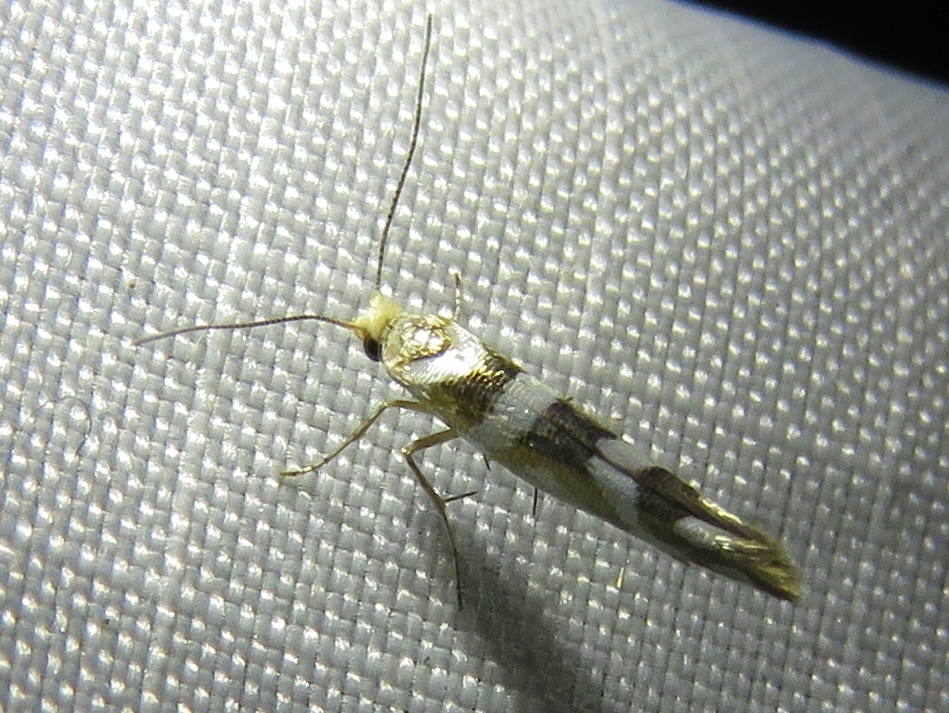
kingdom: Animalia
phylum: Arthropoda
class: Insecta
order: Lepidoptera
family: Argyresthiidae
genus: Argyresthia
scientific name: Argyresthia goedartella
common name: Golden argent
